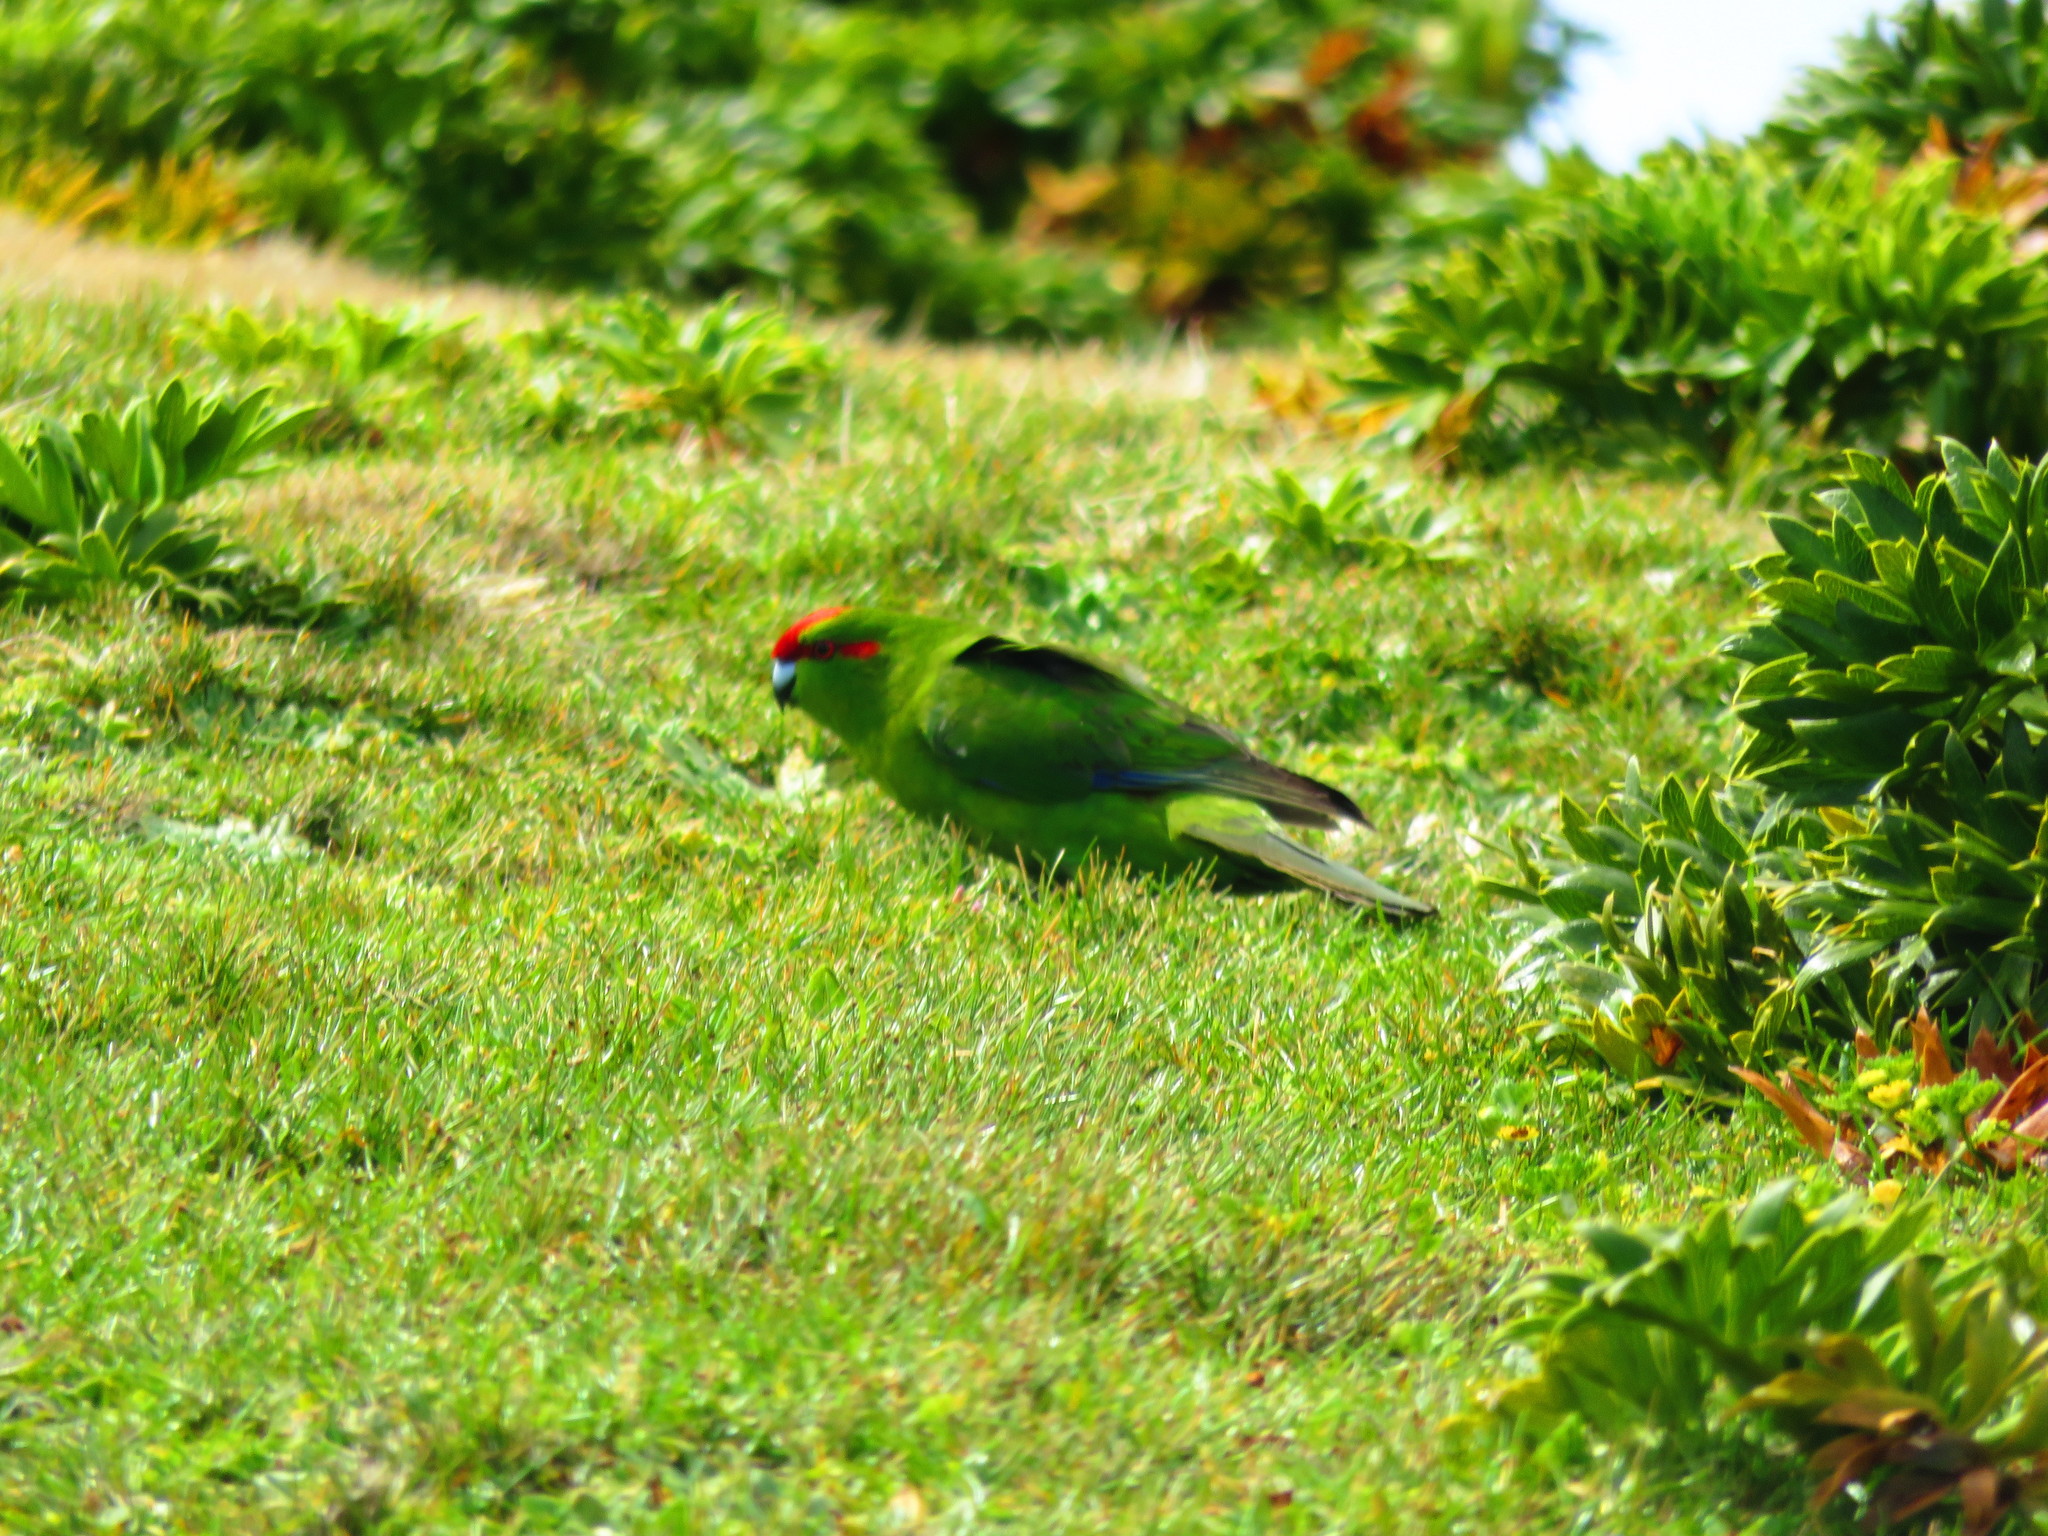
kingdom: Animalia
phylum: Chordata
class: Aves
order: Psittaciformes
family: Psittacidae
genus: Cyanoramphus
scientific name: Cyanoramphus novaezelandiae
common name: Red-fronted parakeet
